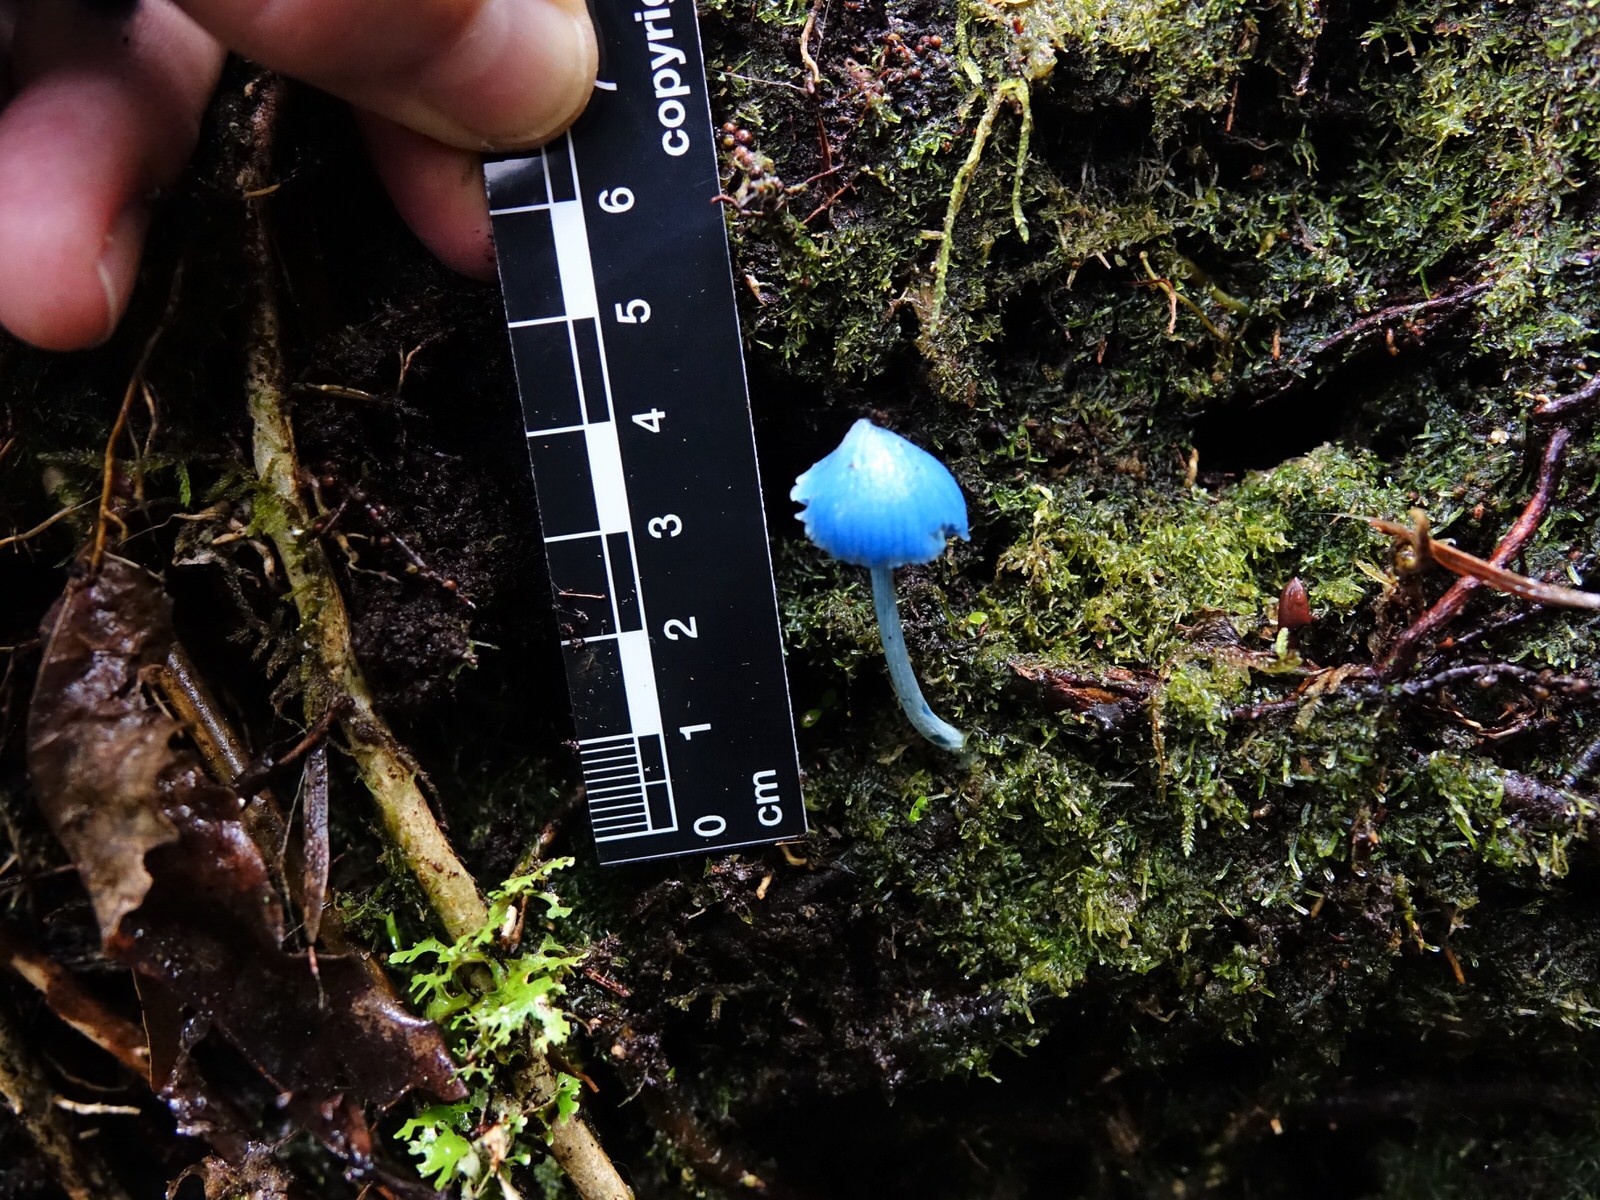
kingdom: Fungi
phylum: Basidiomycota
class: Agaricomycetes
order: Agaricales
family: Entolomataceae
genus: Entoloma
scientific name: Entoloma hochstetteri
